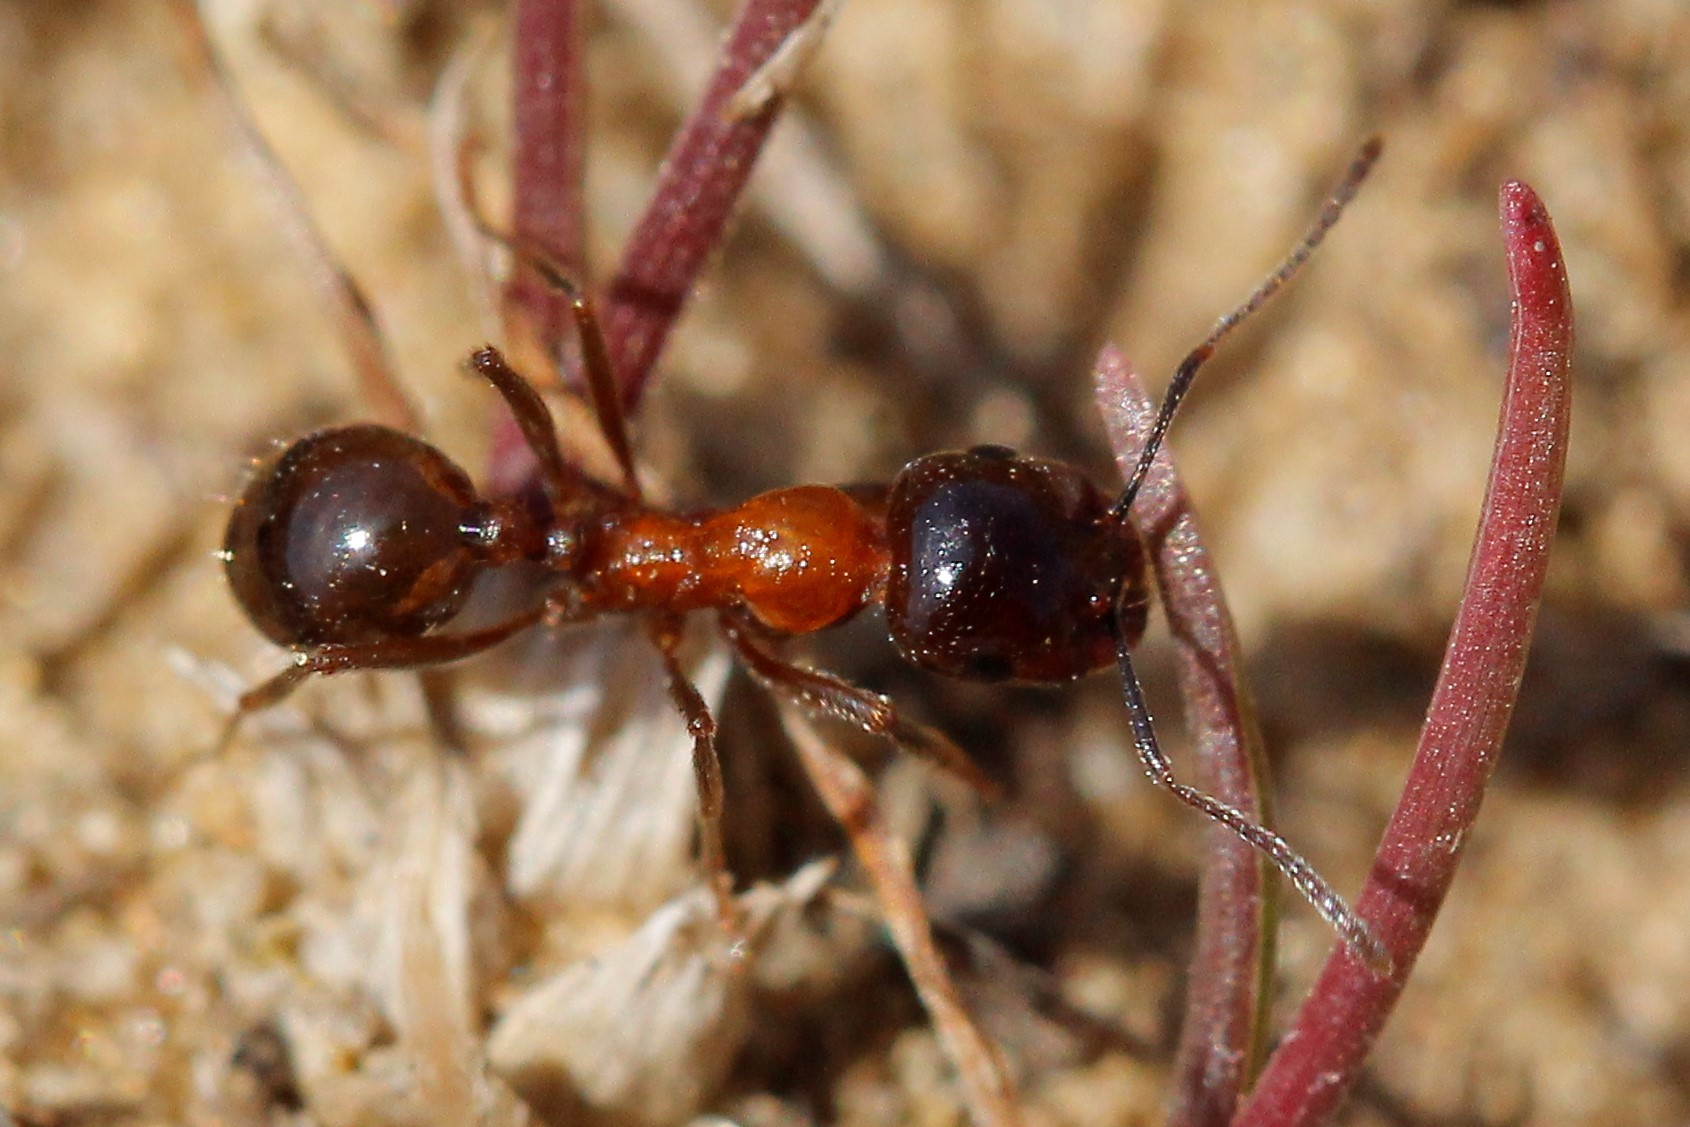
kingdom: Animalia
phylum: Arthropoda
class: Insecta
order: Hymenoptera
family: Formicidae
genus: Messor
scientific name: Messor denticulatus
